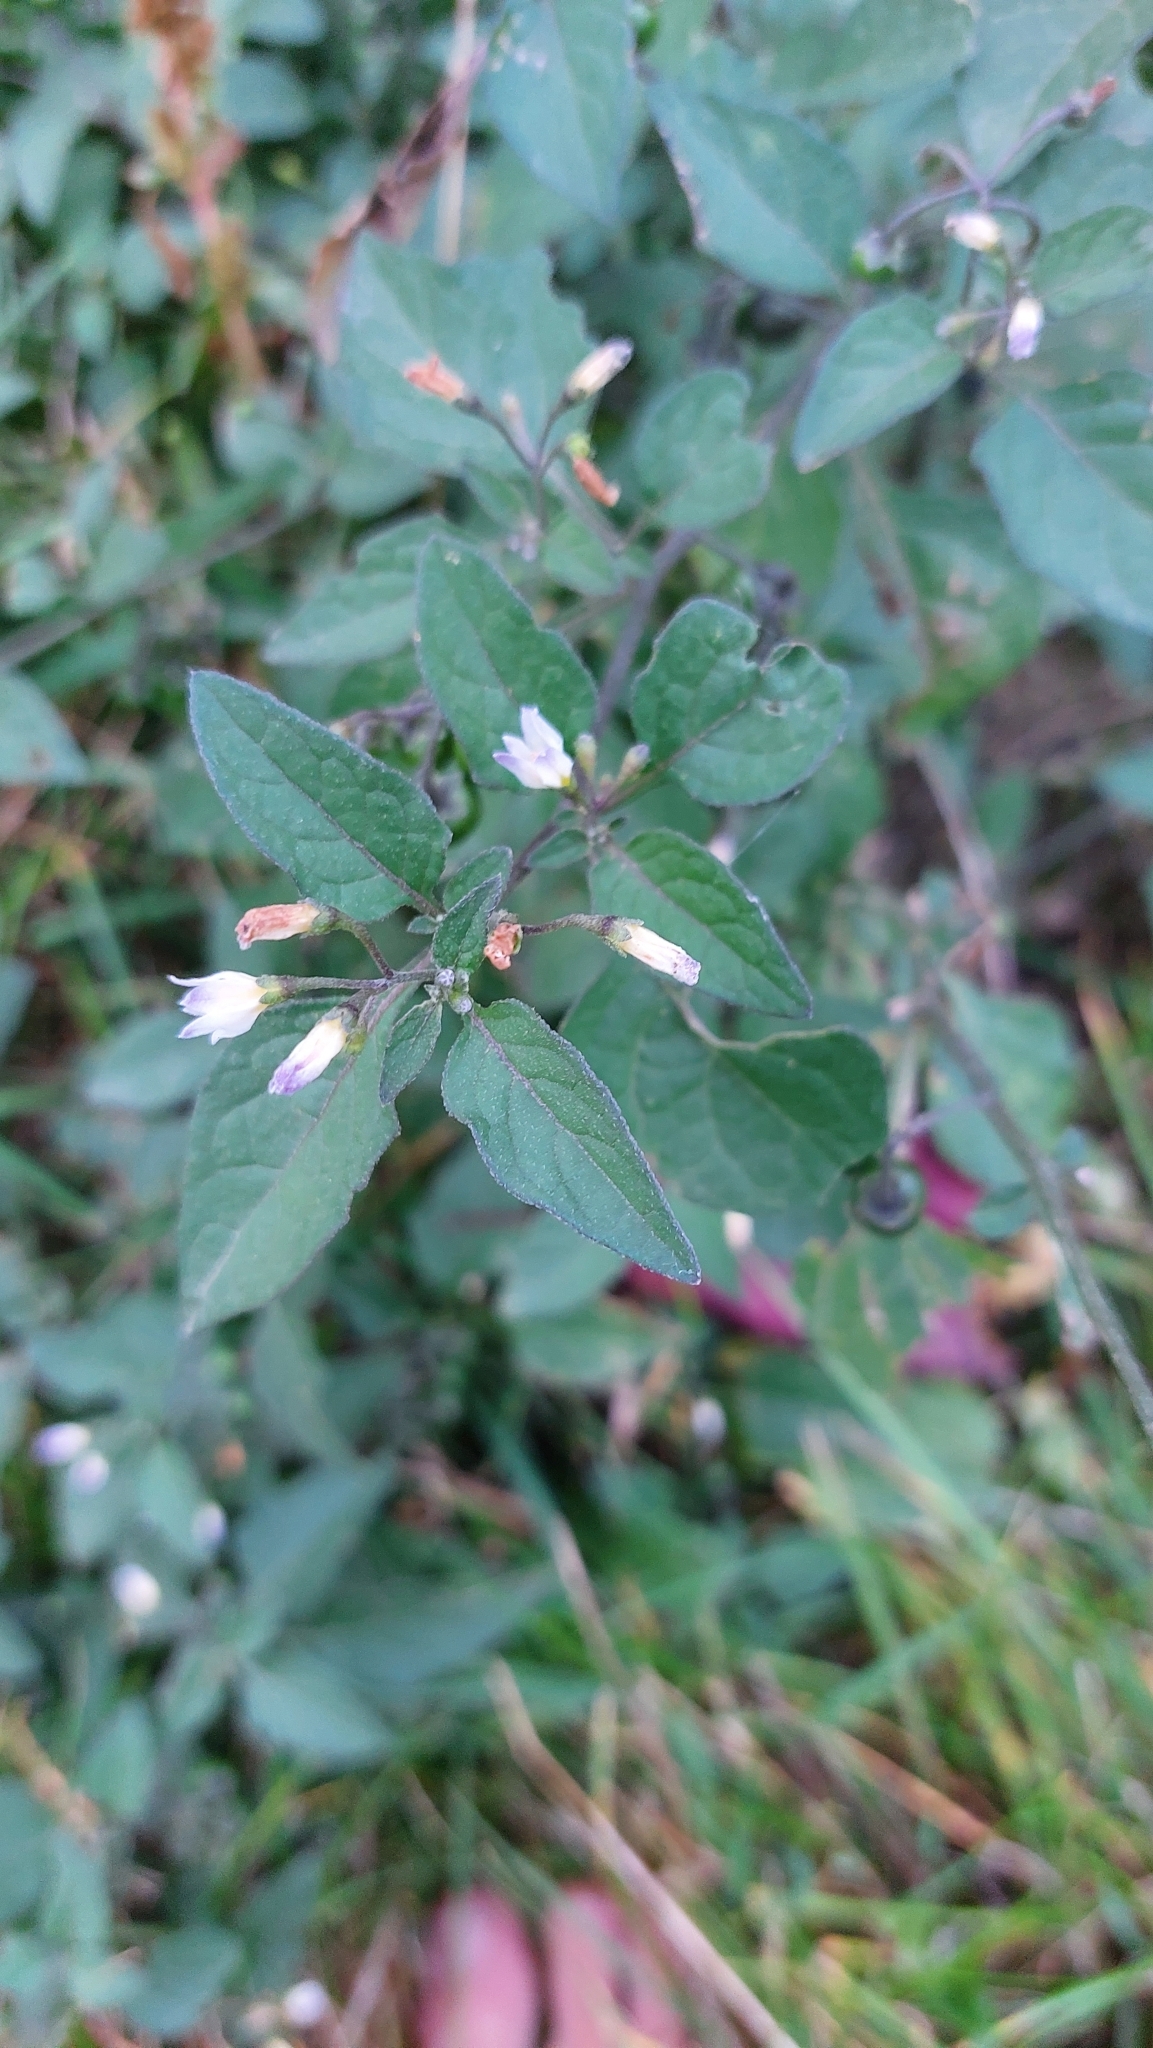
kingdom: Plantae
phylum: Tracheophyta
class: Magnoliopsida
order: Solanales
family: Solanaceae
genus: Solanum
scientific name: Solanum nigrum
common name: Black nightshade
